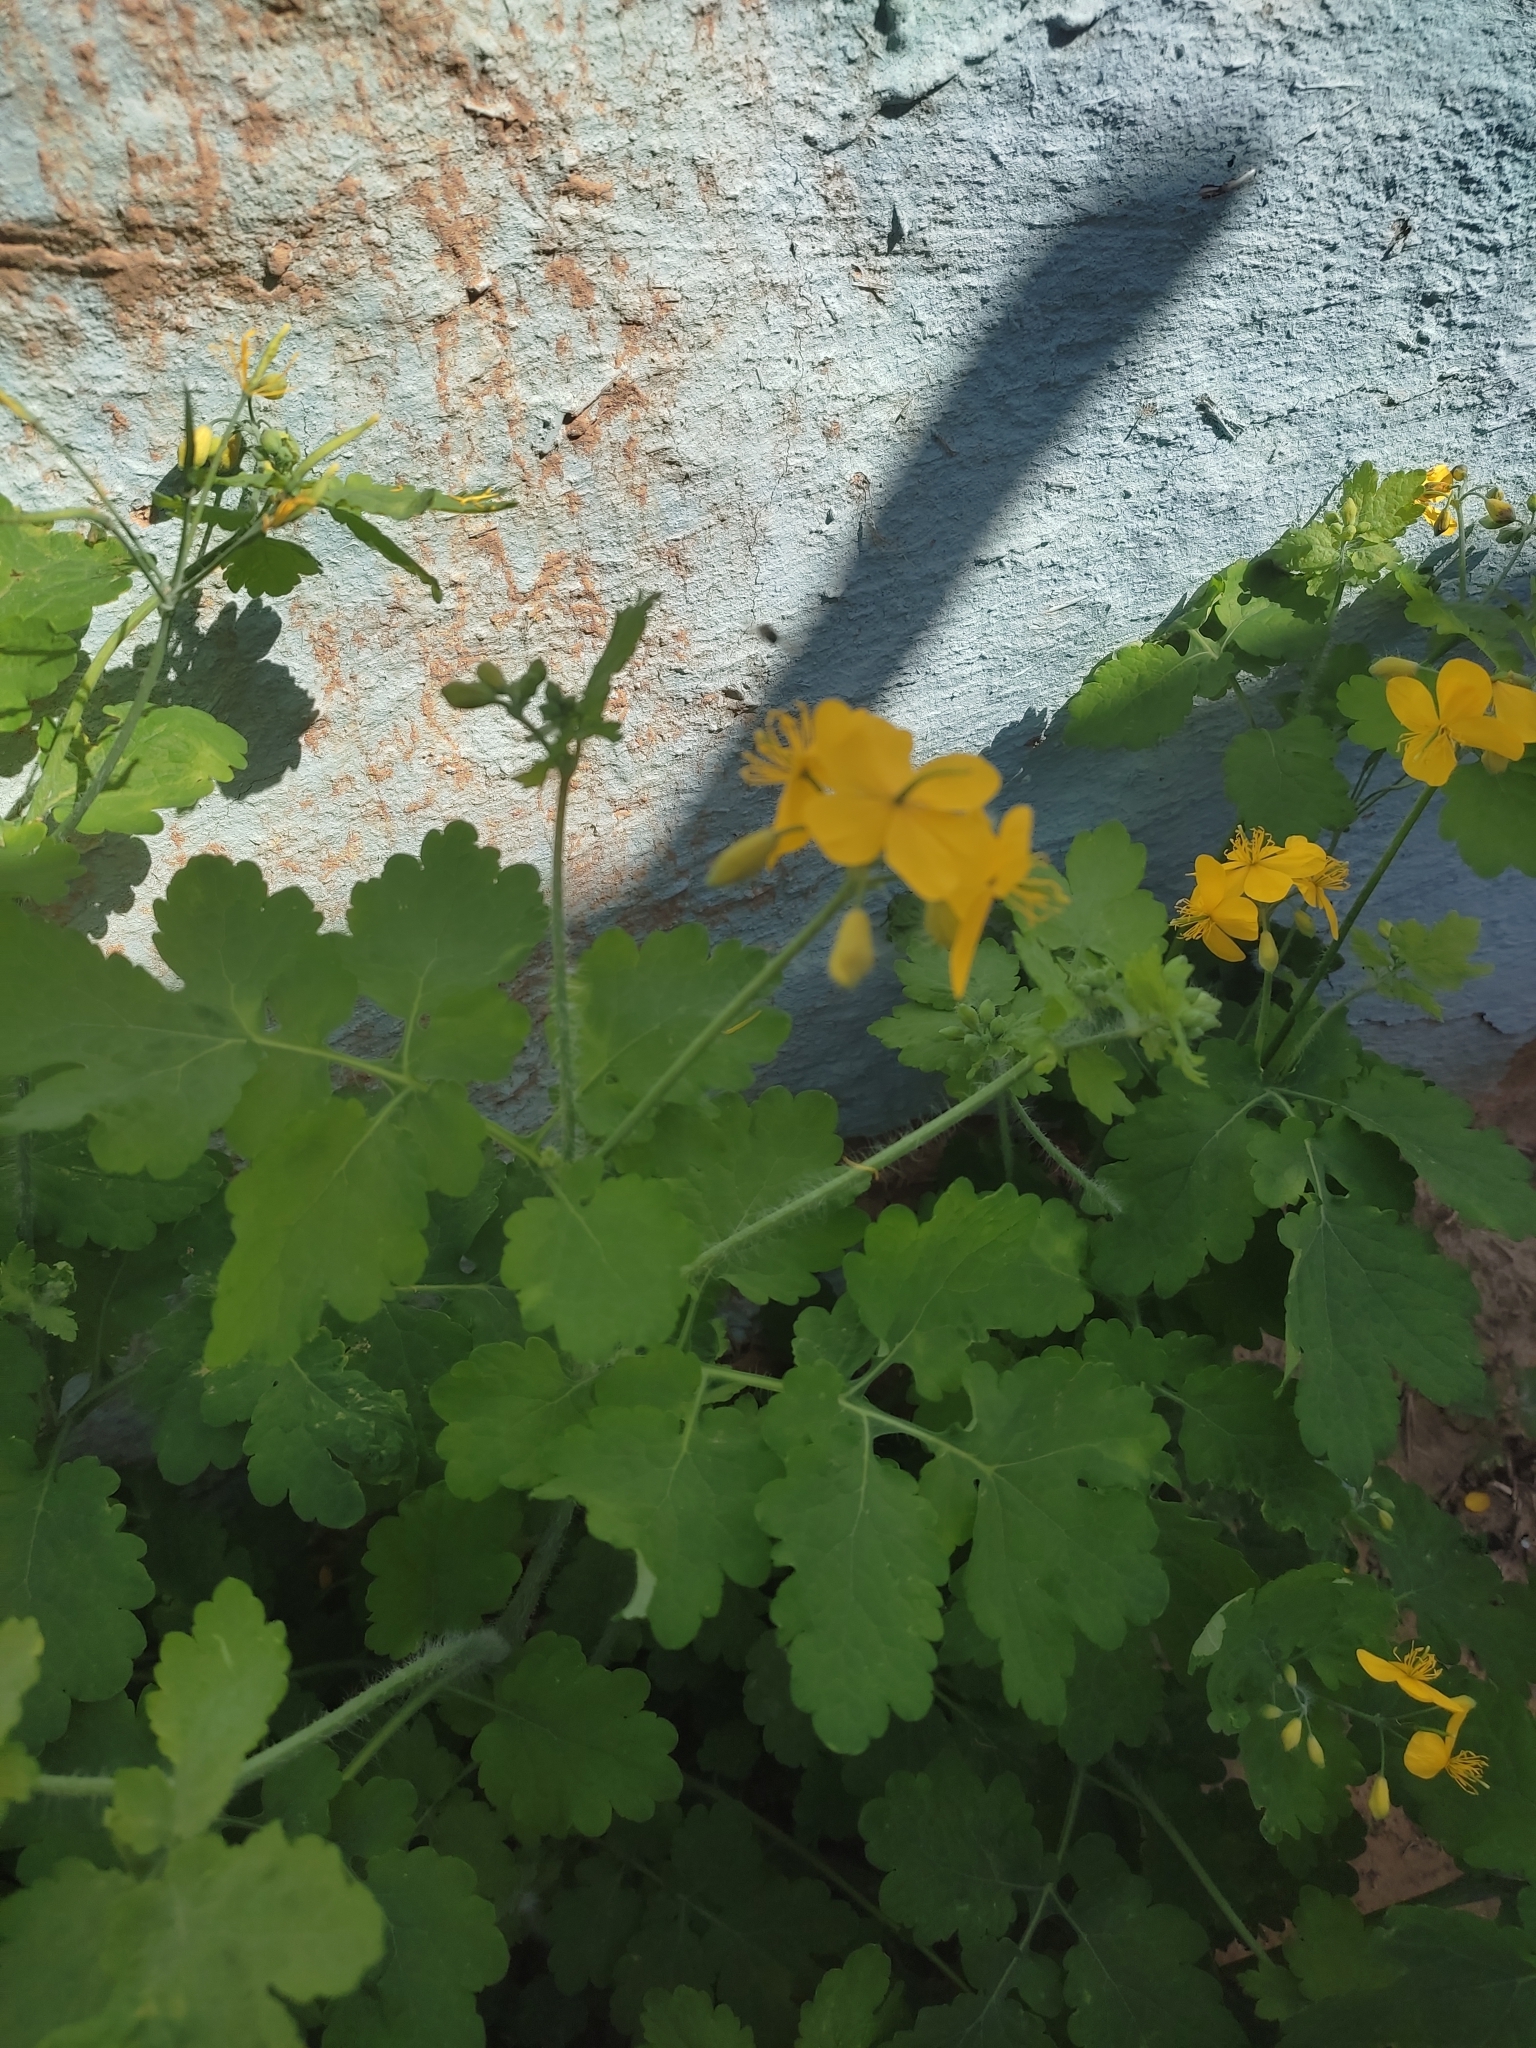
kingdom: Plantae
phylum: Tracheophyta
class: Magnoliopsida
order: Ranunculales
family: Papaveraceae
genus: Chelidonium
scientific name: Chelidonium majus
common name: Greater celandine
